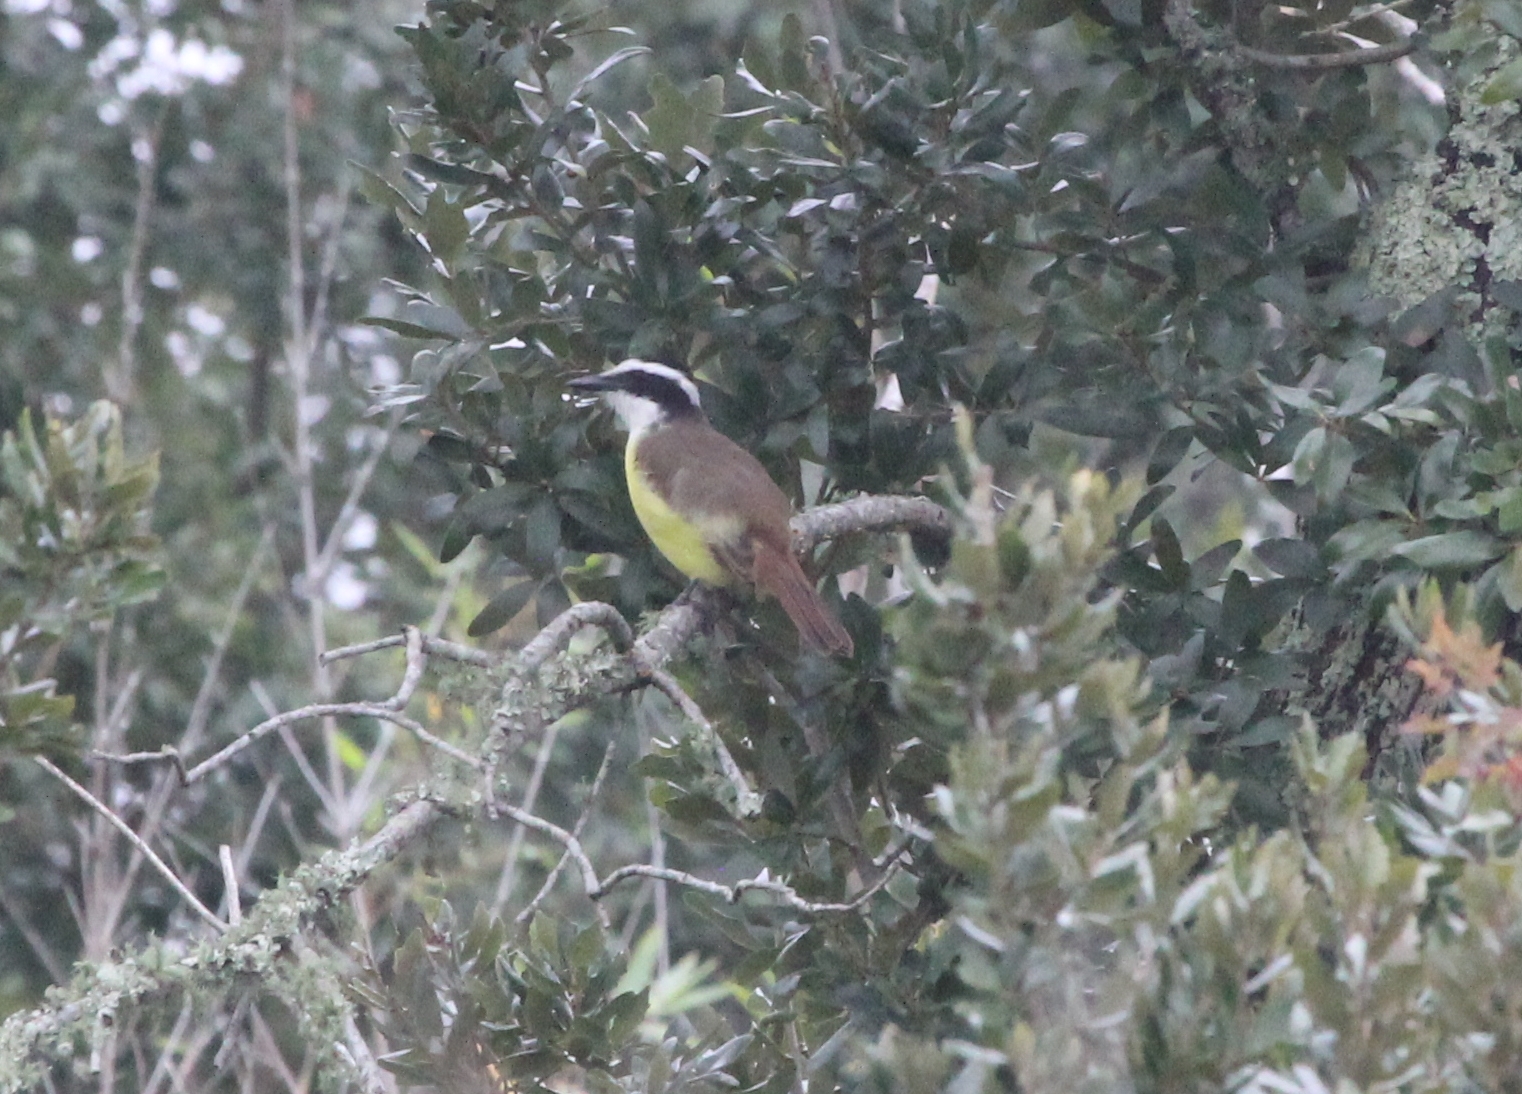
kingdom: Animalia
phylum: Chordata
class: Aves
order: Passeriformes
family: Tyrannidae
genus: Pitangus
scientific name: Pitangus sulphuratus
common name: Great kiskadee
